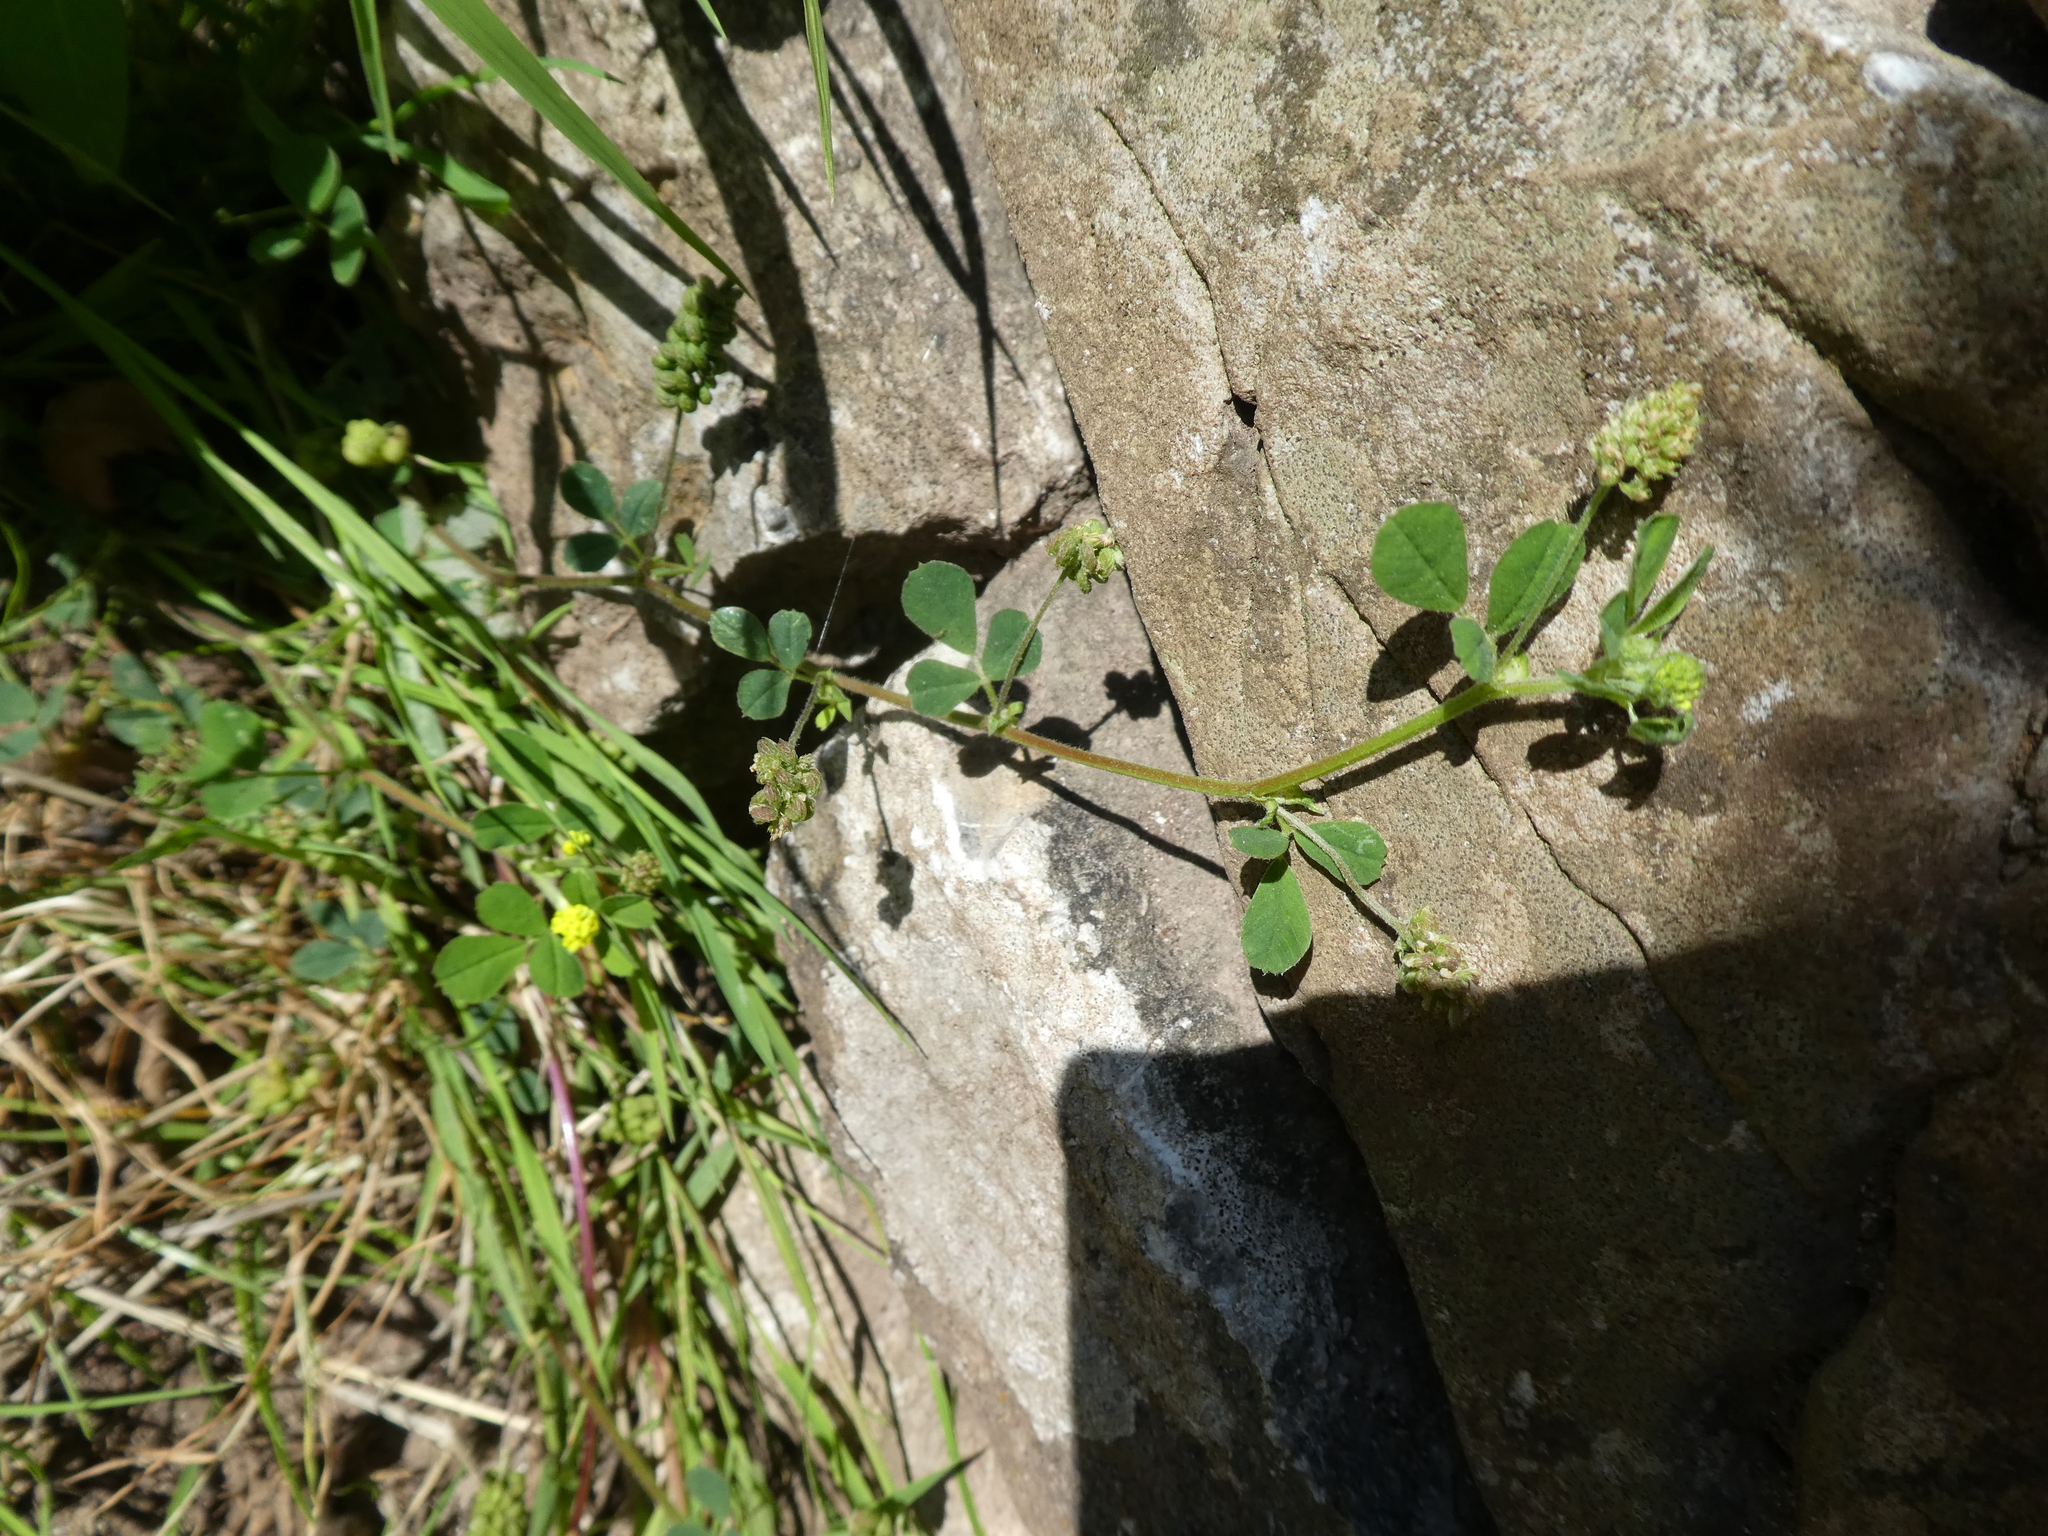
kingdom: Plantae
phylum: Tracheophyta
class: Magnoliopsida
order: Fabales
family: Fabaceae
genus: Medicago
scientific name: Medicago lupulina
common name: Black medick
